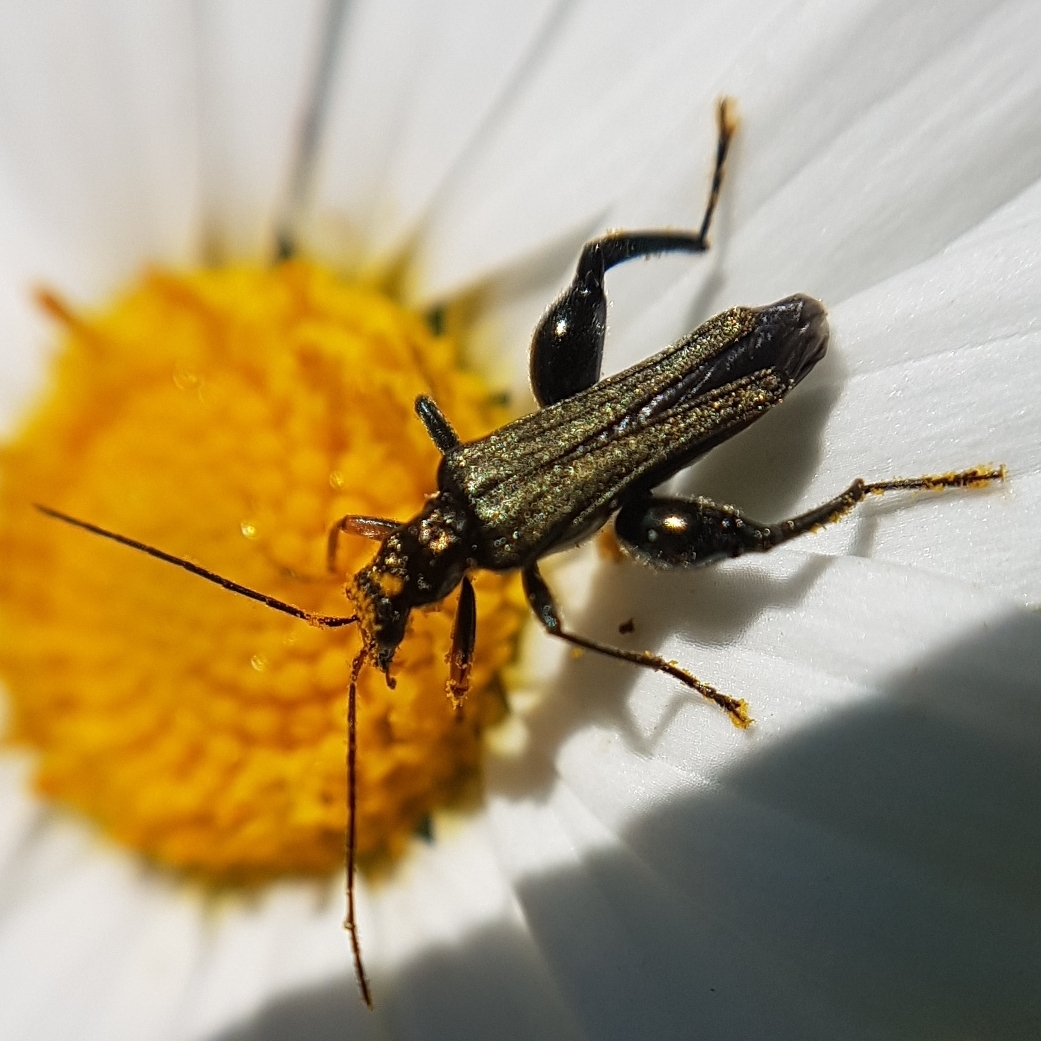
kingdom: Animalia
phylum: Arthropoda
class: Insecta
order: Coleoptera
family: Oedemeridae
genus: Oedemera
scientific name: Oedemera flavipes
